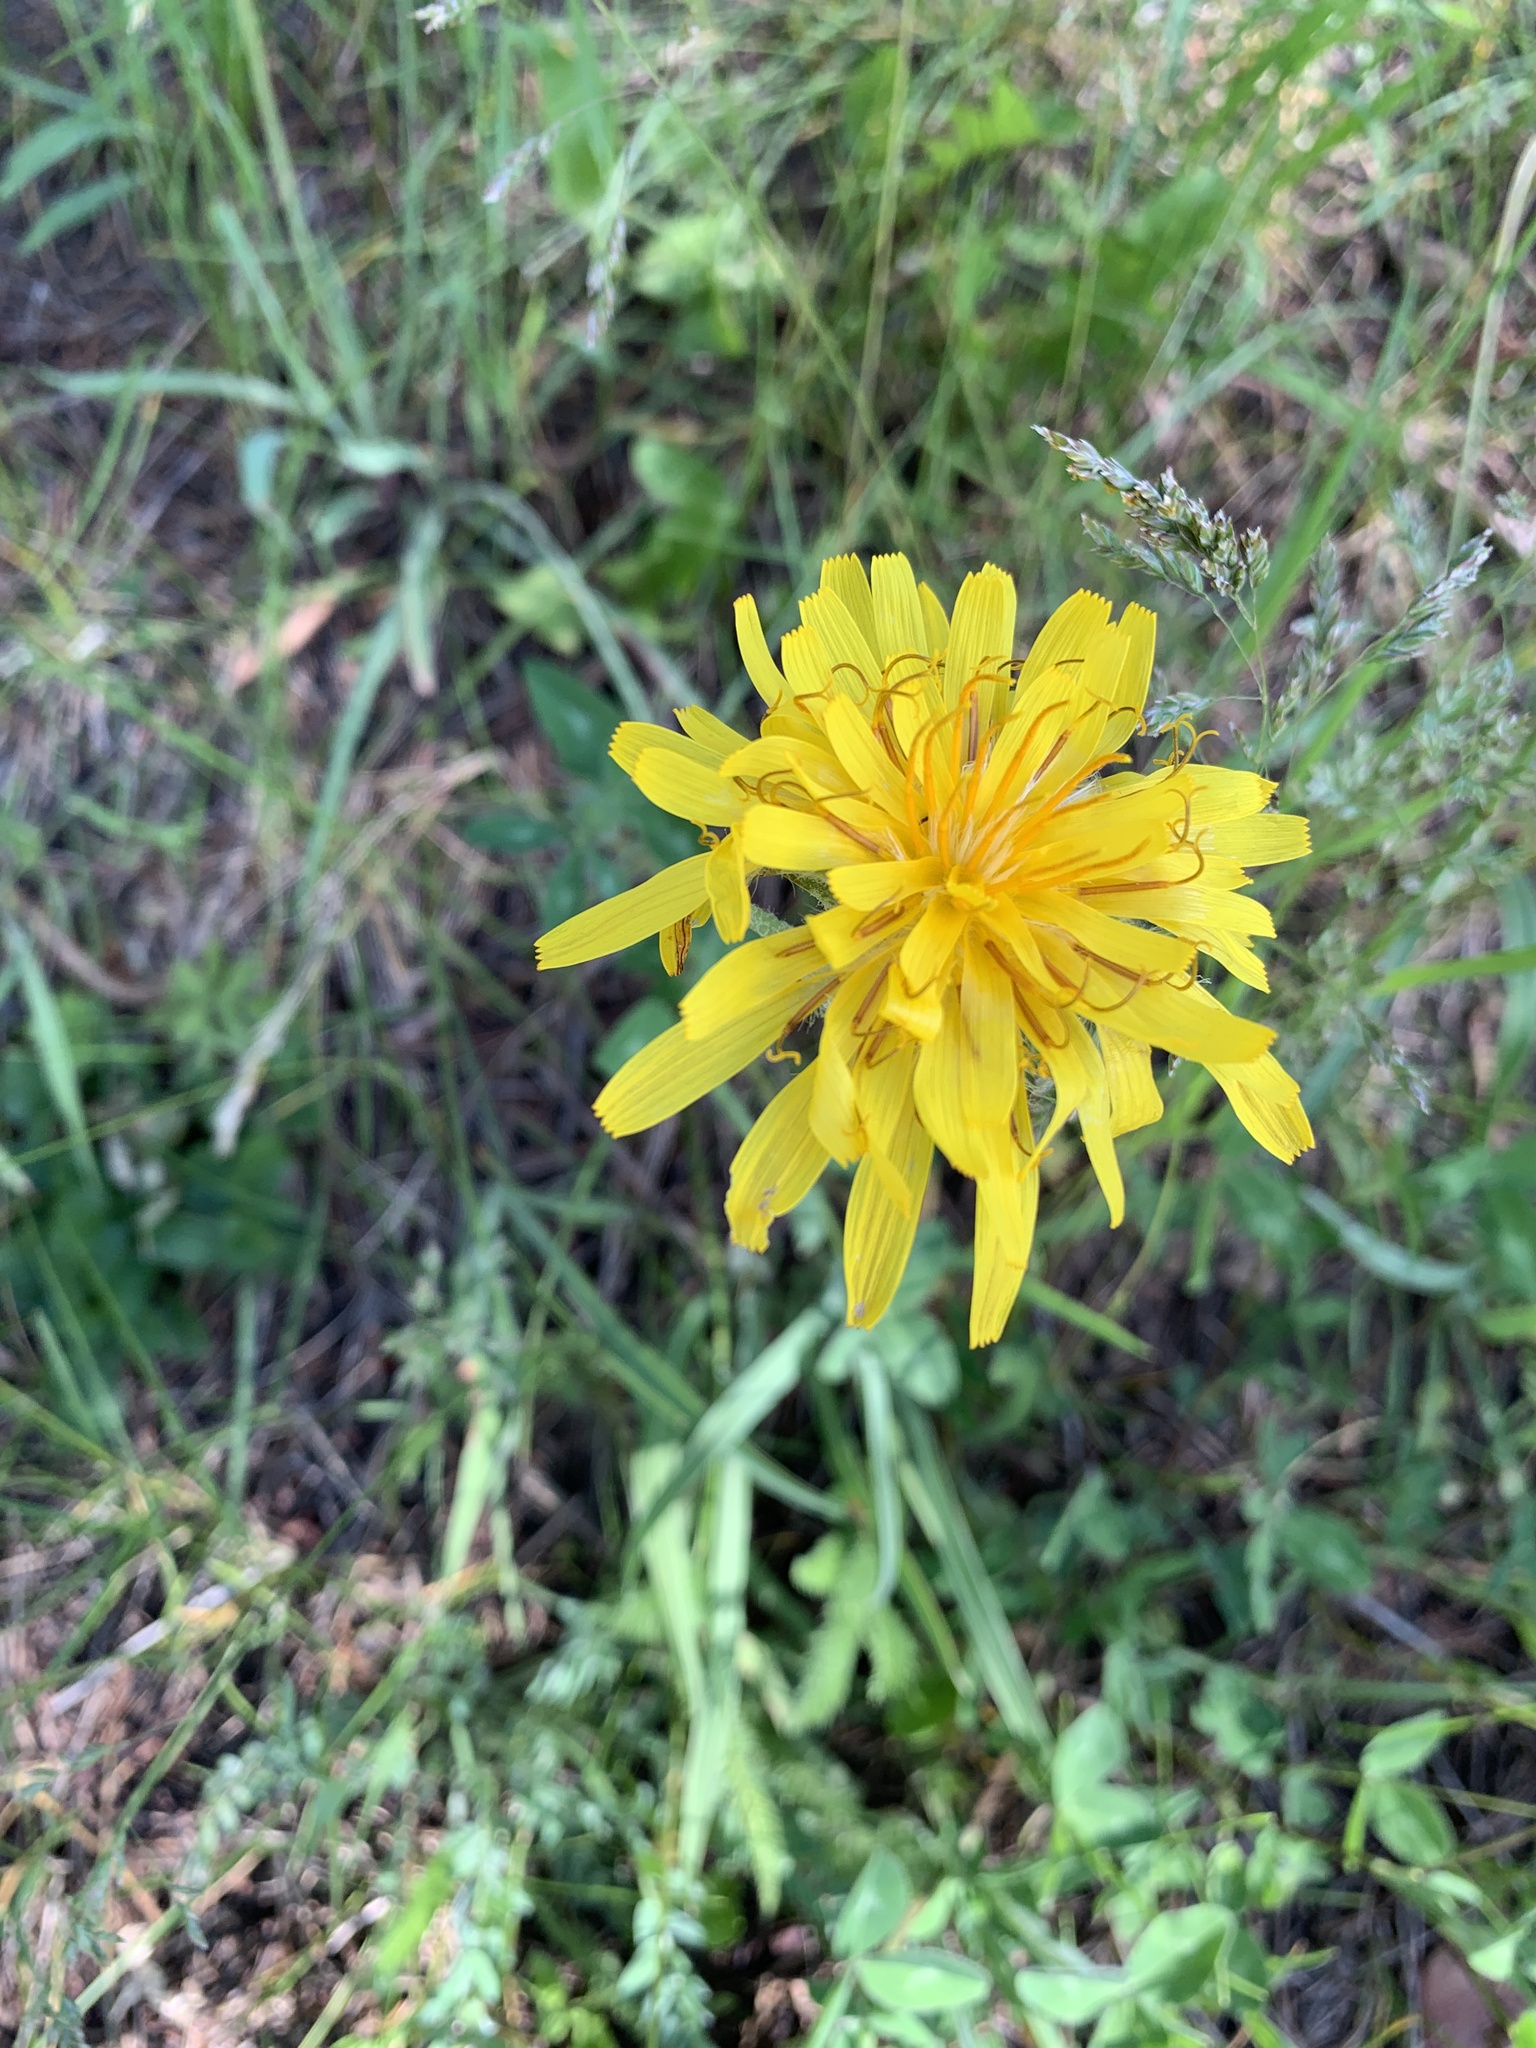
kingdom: Plantae
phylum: Tracheophyta
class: Magnoliopsida
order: Asterales
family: Asteraceae
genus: Agoseris
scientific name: Agoseris glauca
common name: Prairie agoseris
